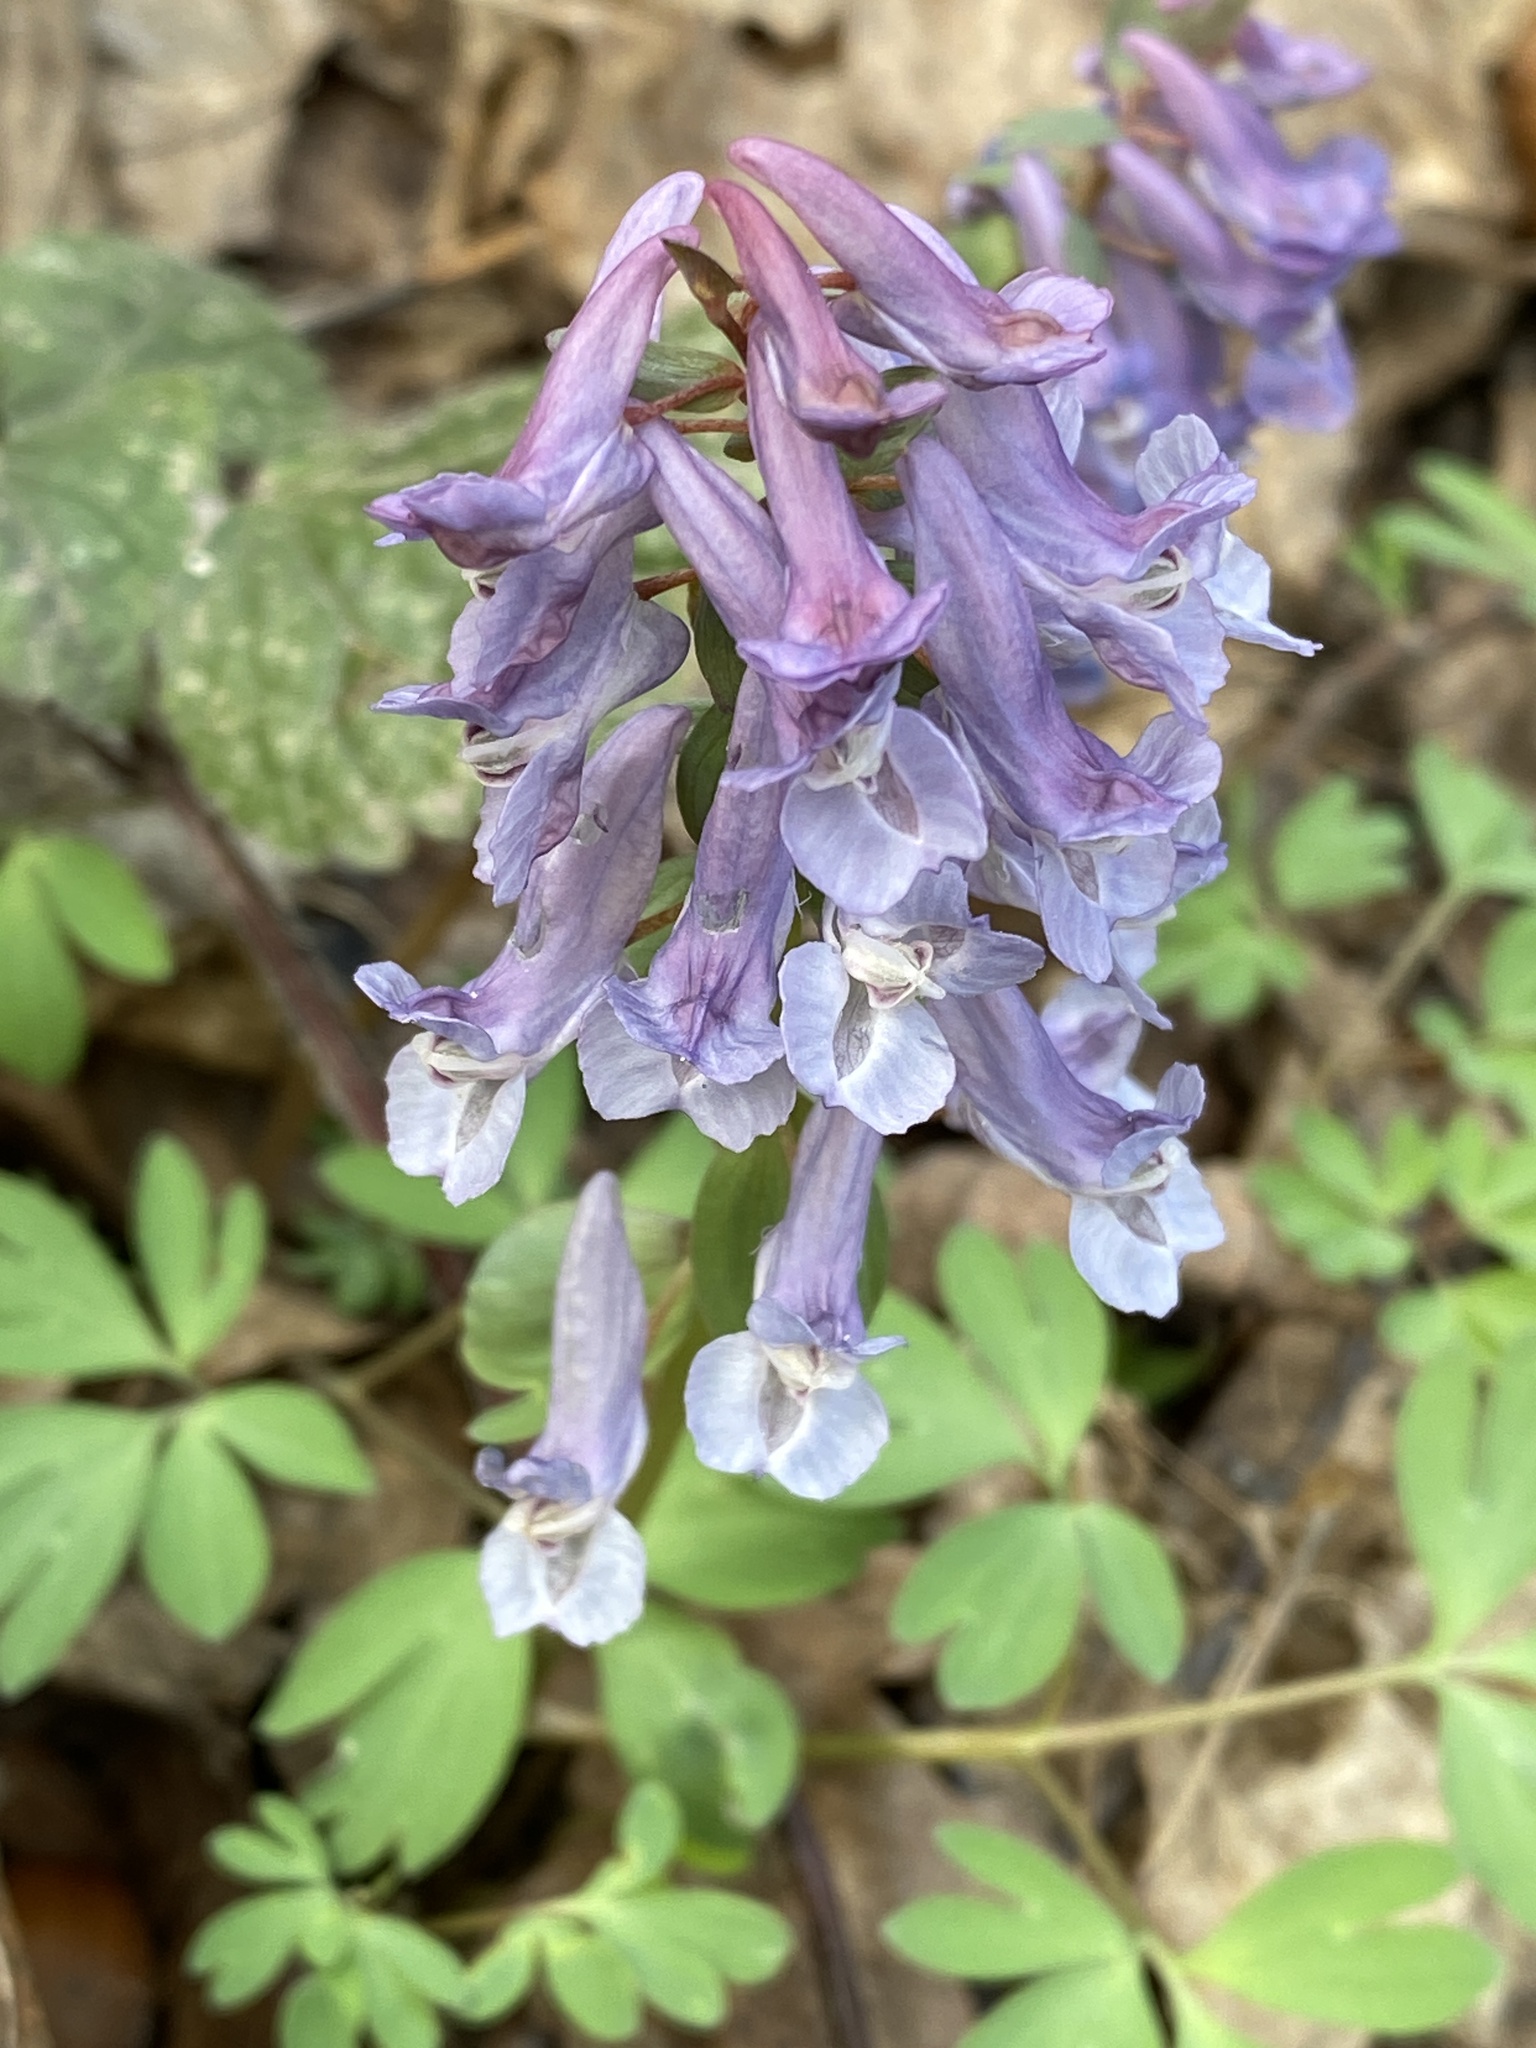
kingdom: Plantae
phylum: Tracheophyta
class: Magnoliopsida
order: Ranunculales
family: Papaveraceae
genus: Corydalis
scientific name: Corydalis solida
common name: Bird-in-a-bush
